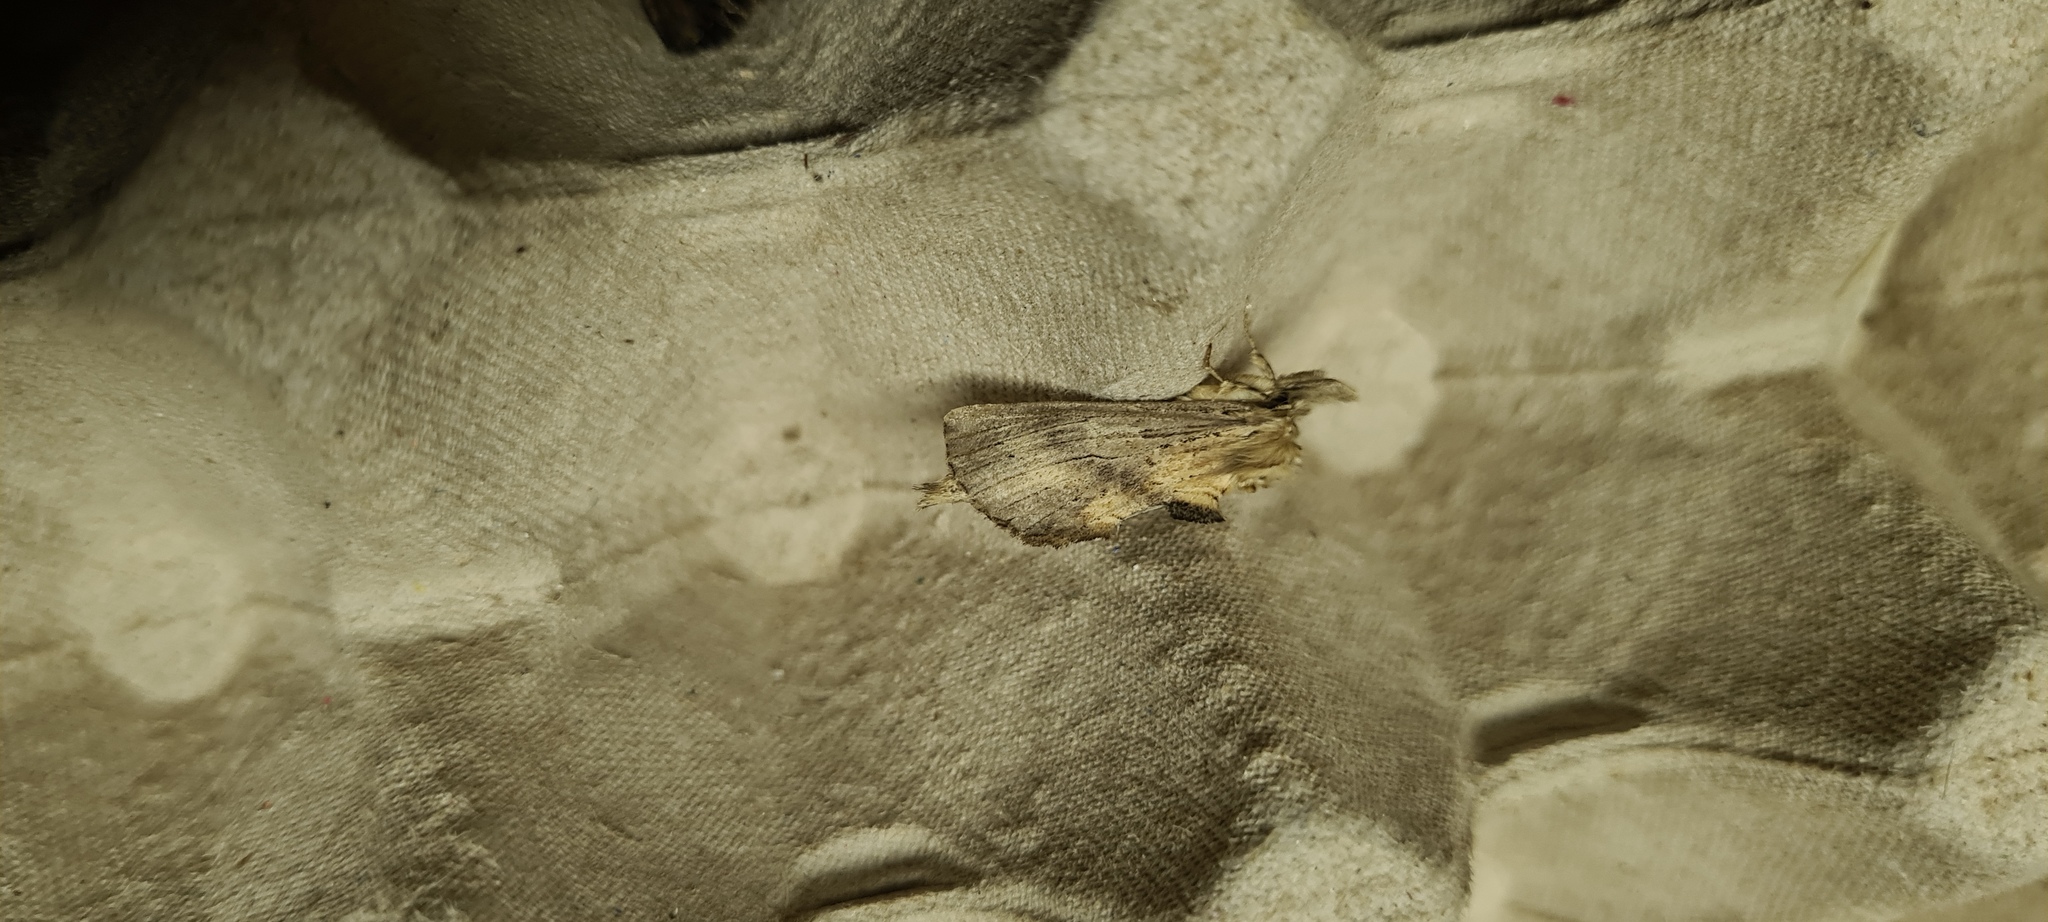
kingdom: Animalia
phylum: Arthropoda
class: Insecta
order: Lepidoptera
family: Notodontidae
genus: Pterostoma
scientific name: Pterostoma palpina
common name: Pale prominent
